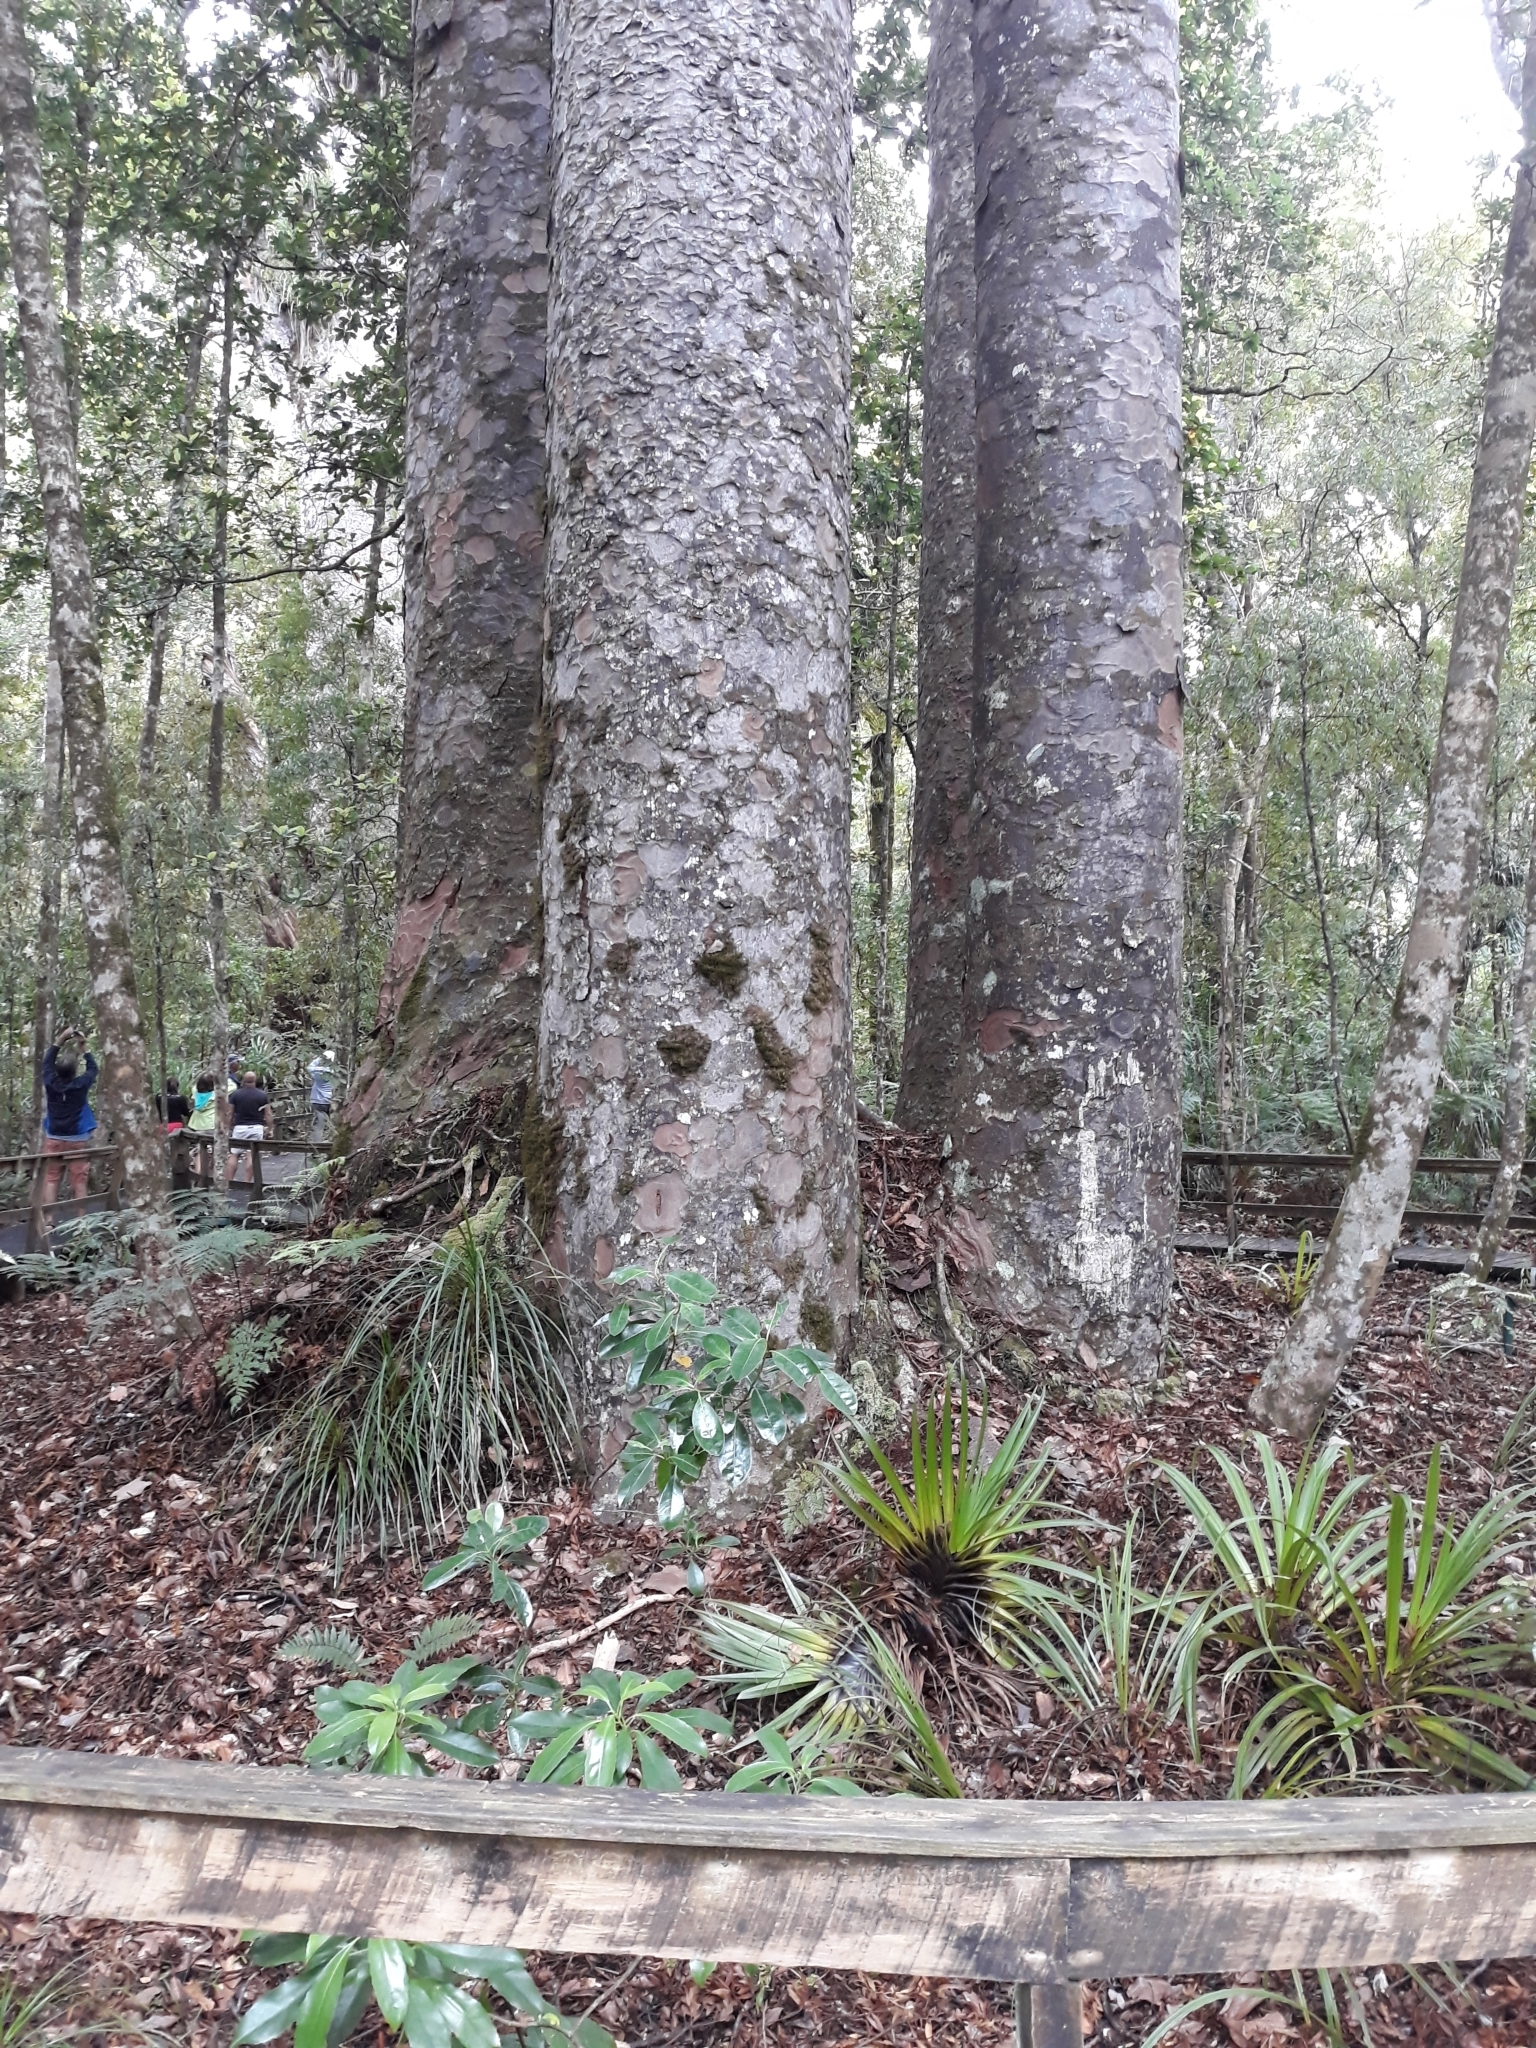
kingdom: Plantae
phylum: Tracheophyta
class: Pinopsida
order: Pinales
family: Araucariaceae
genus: Agathis
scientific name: Agathis australis
